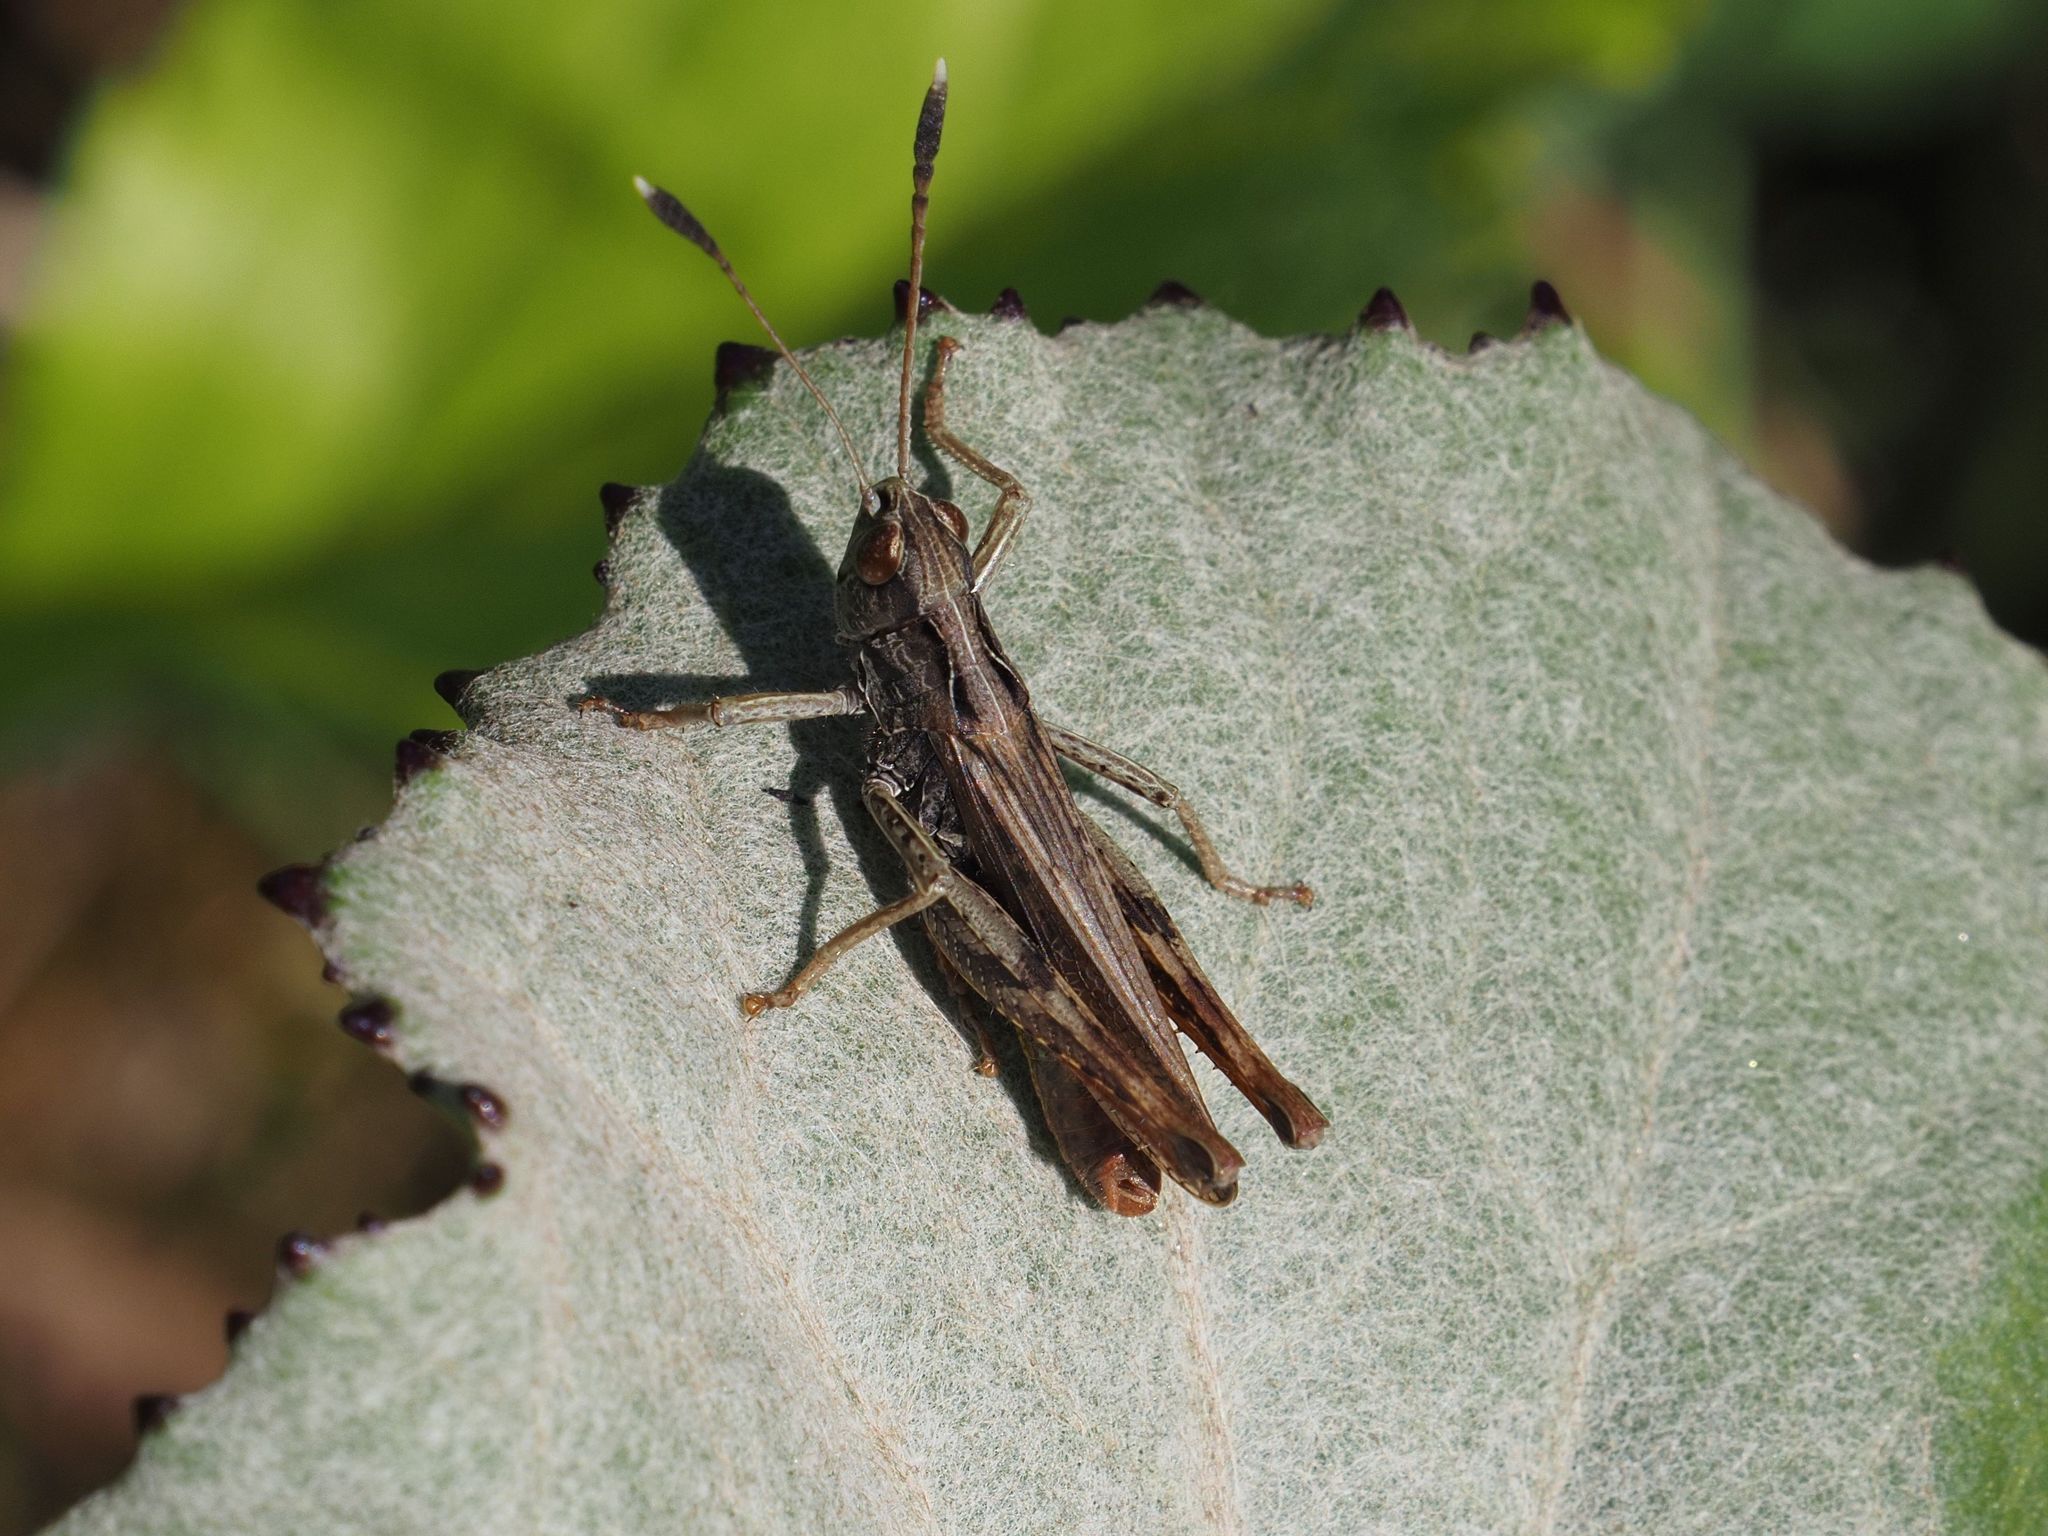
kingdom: Animalia
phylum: Arthropoda
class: Insecta
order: Orthoptera
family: Acrididae
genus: Gomphocerippus
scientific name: Gomphocerippus rufus
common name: Rufous grasshopper
